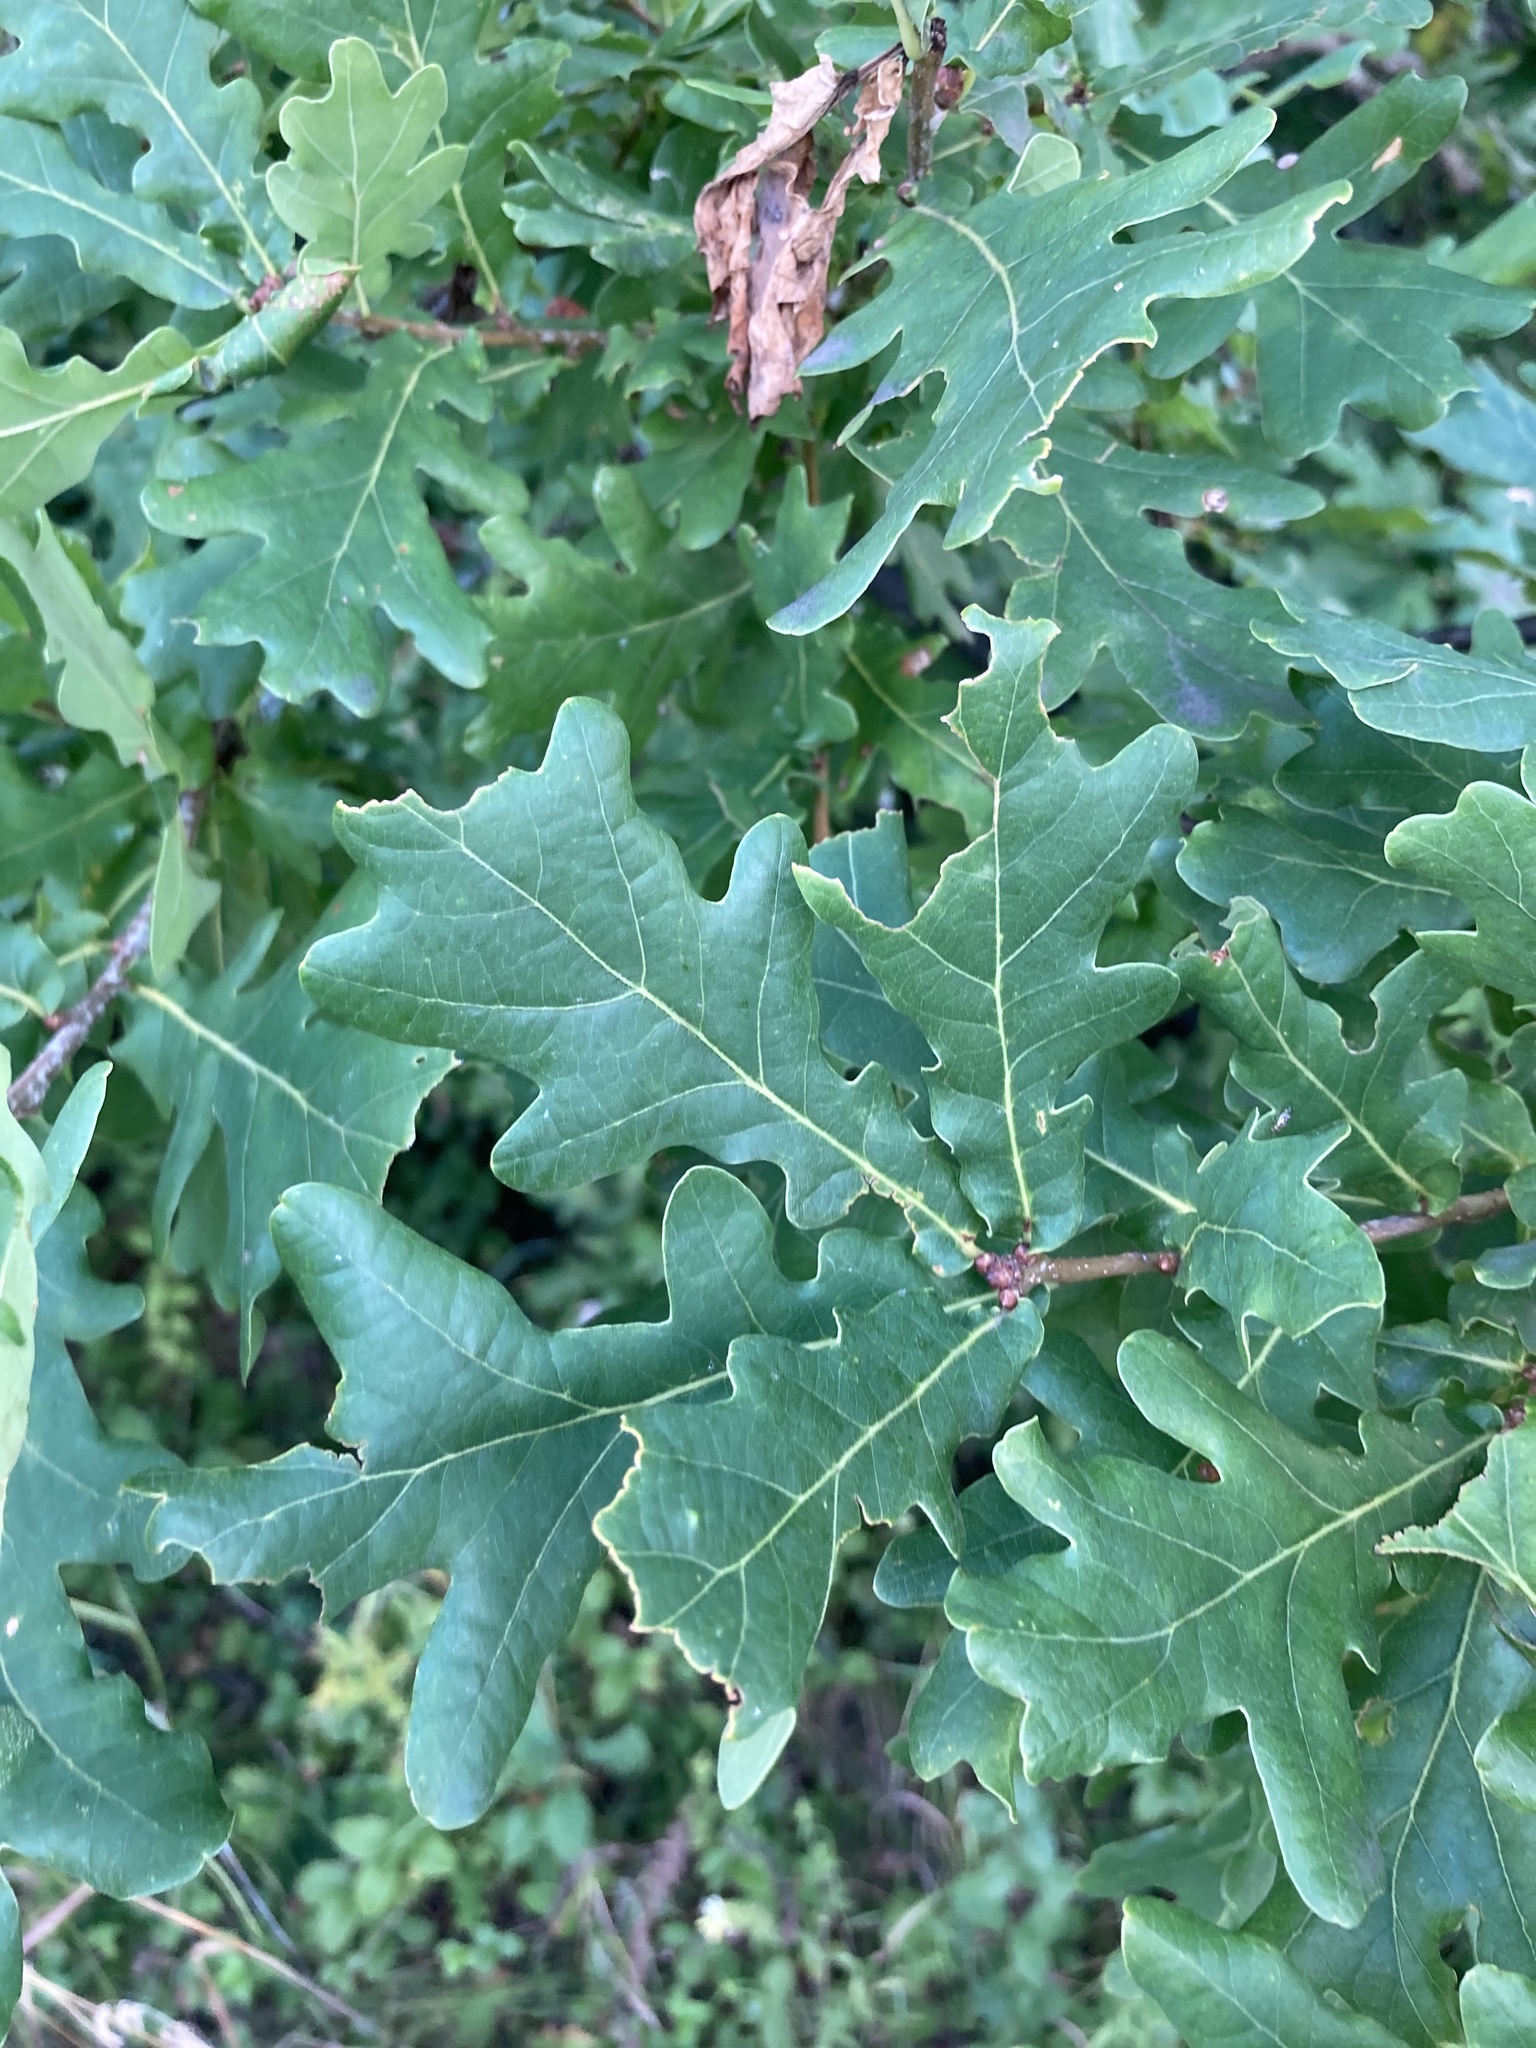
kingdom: Plantae
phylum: Tracheophyta
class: Magnoliopsida
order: Fagales
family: Fagaceae
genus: Quercus
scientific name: Quercus robur
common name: Pedunculate oak
